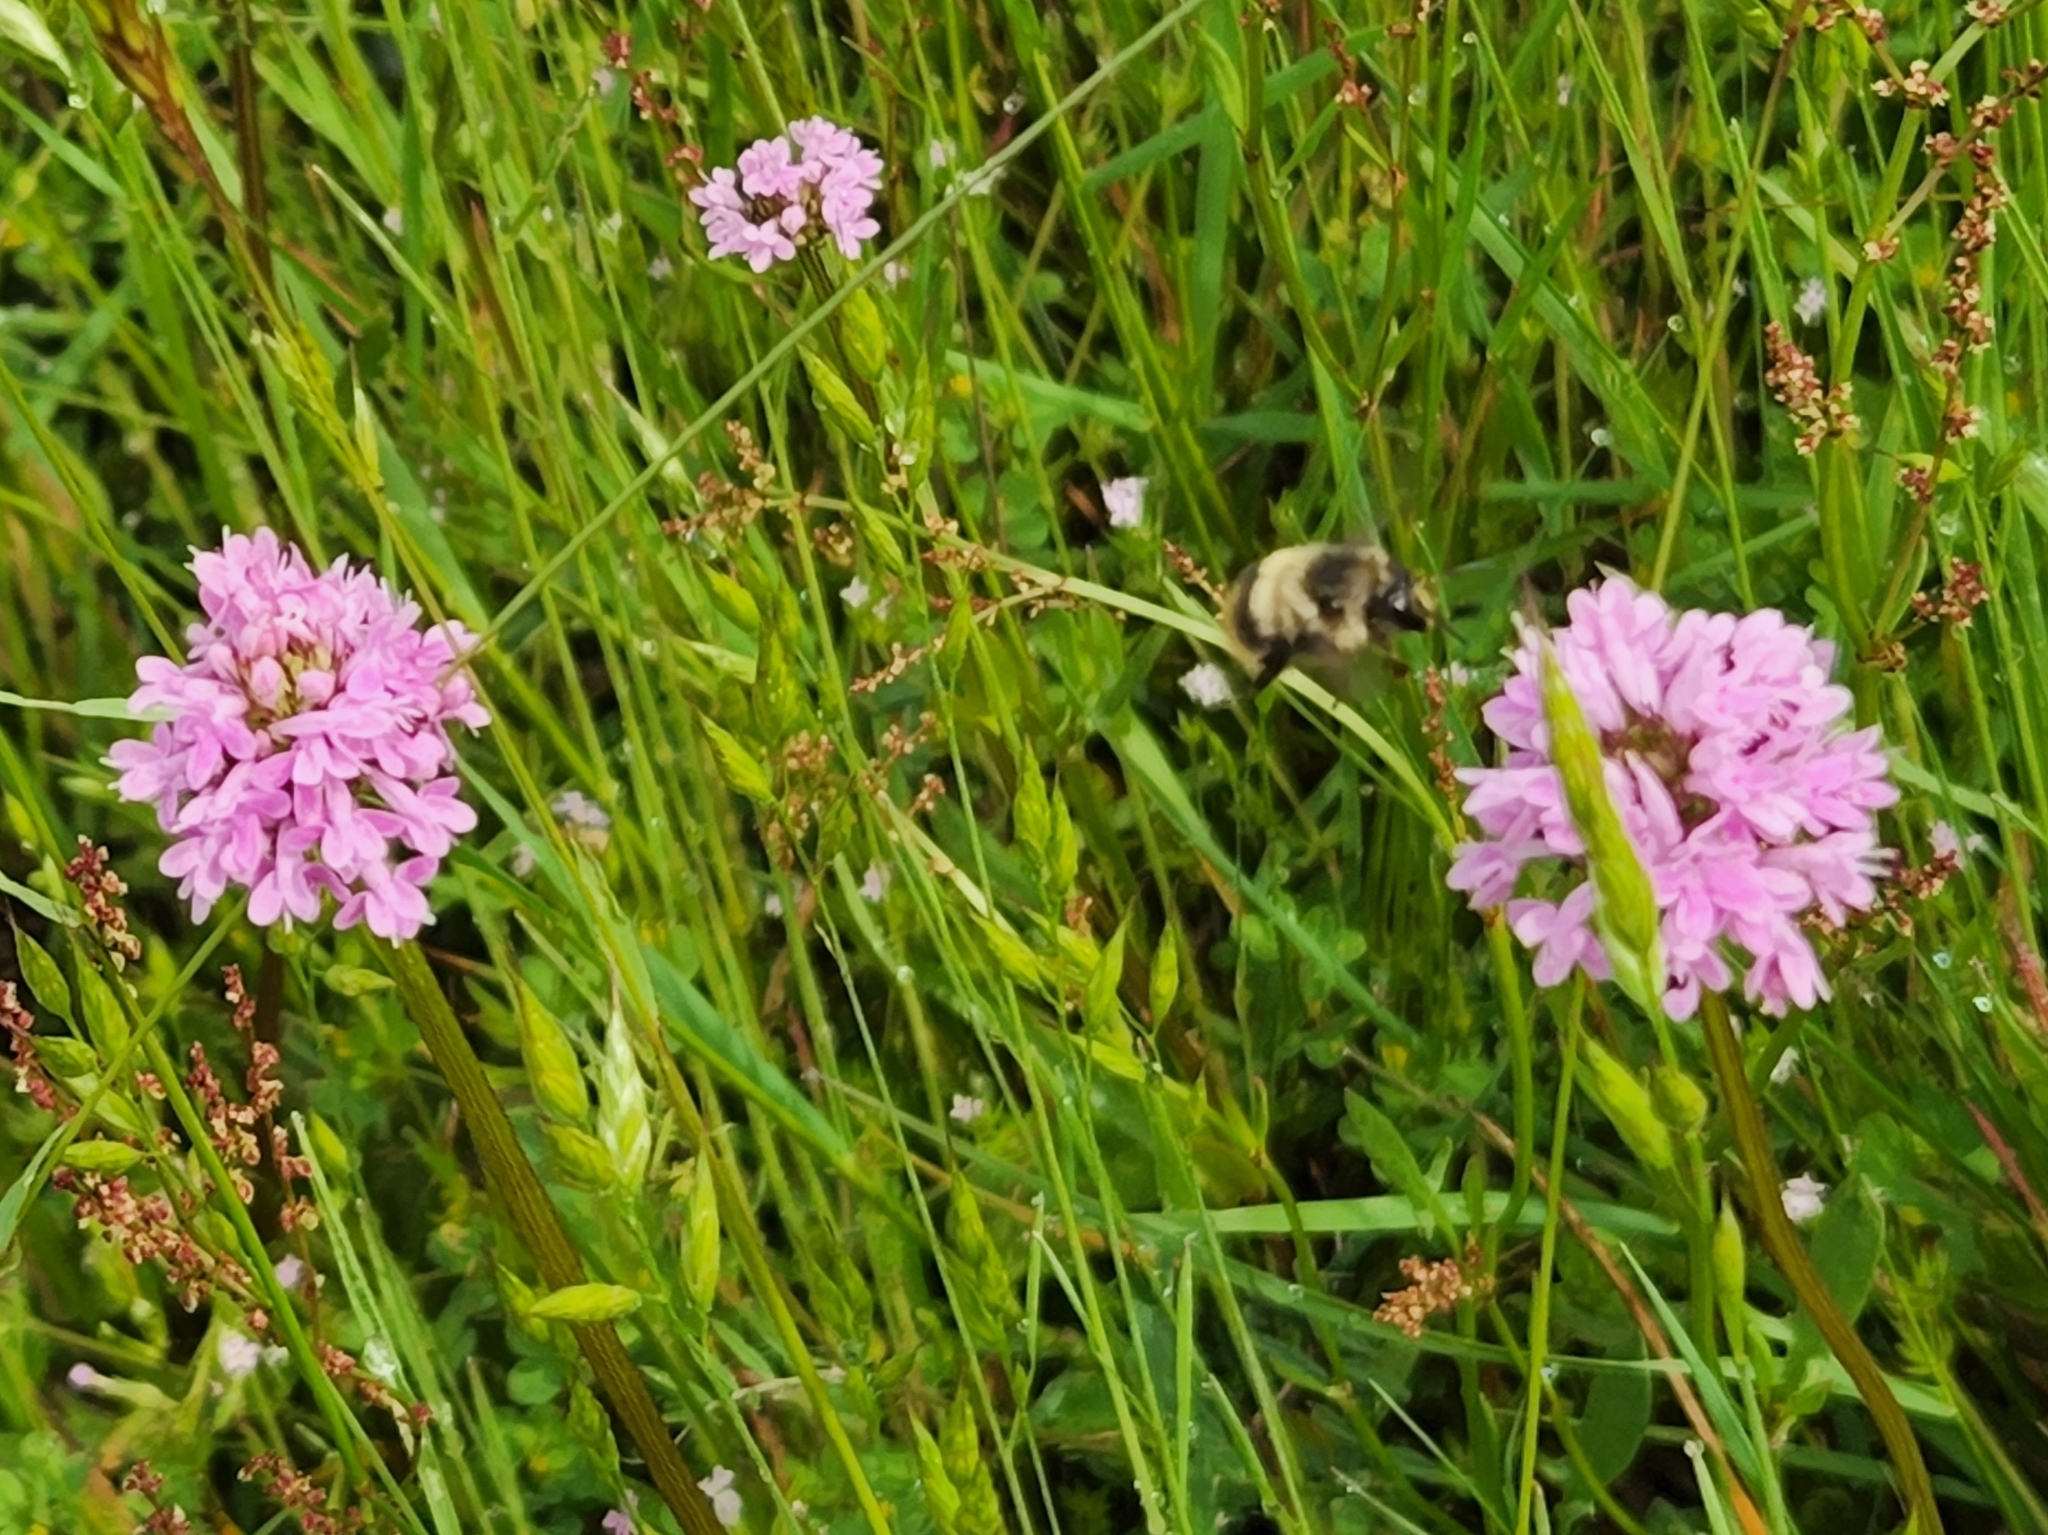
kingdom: Plantae
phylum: Tracheophyta
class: Magnoliopsida
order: Dipsacales
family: Caprifoliaceae
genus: Plectritis
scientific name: Plectritis congesta
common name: Pink plectritis
